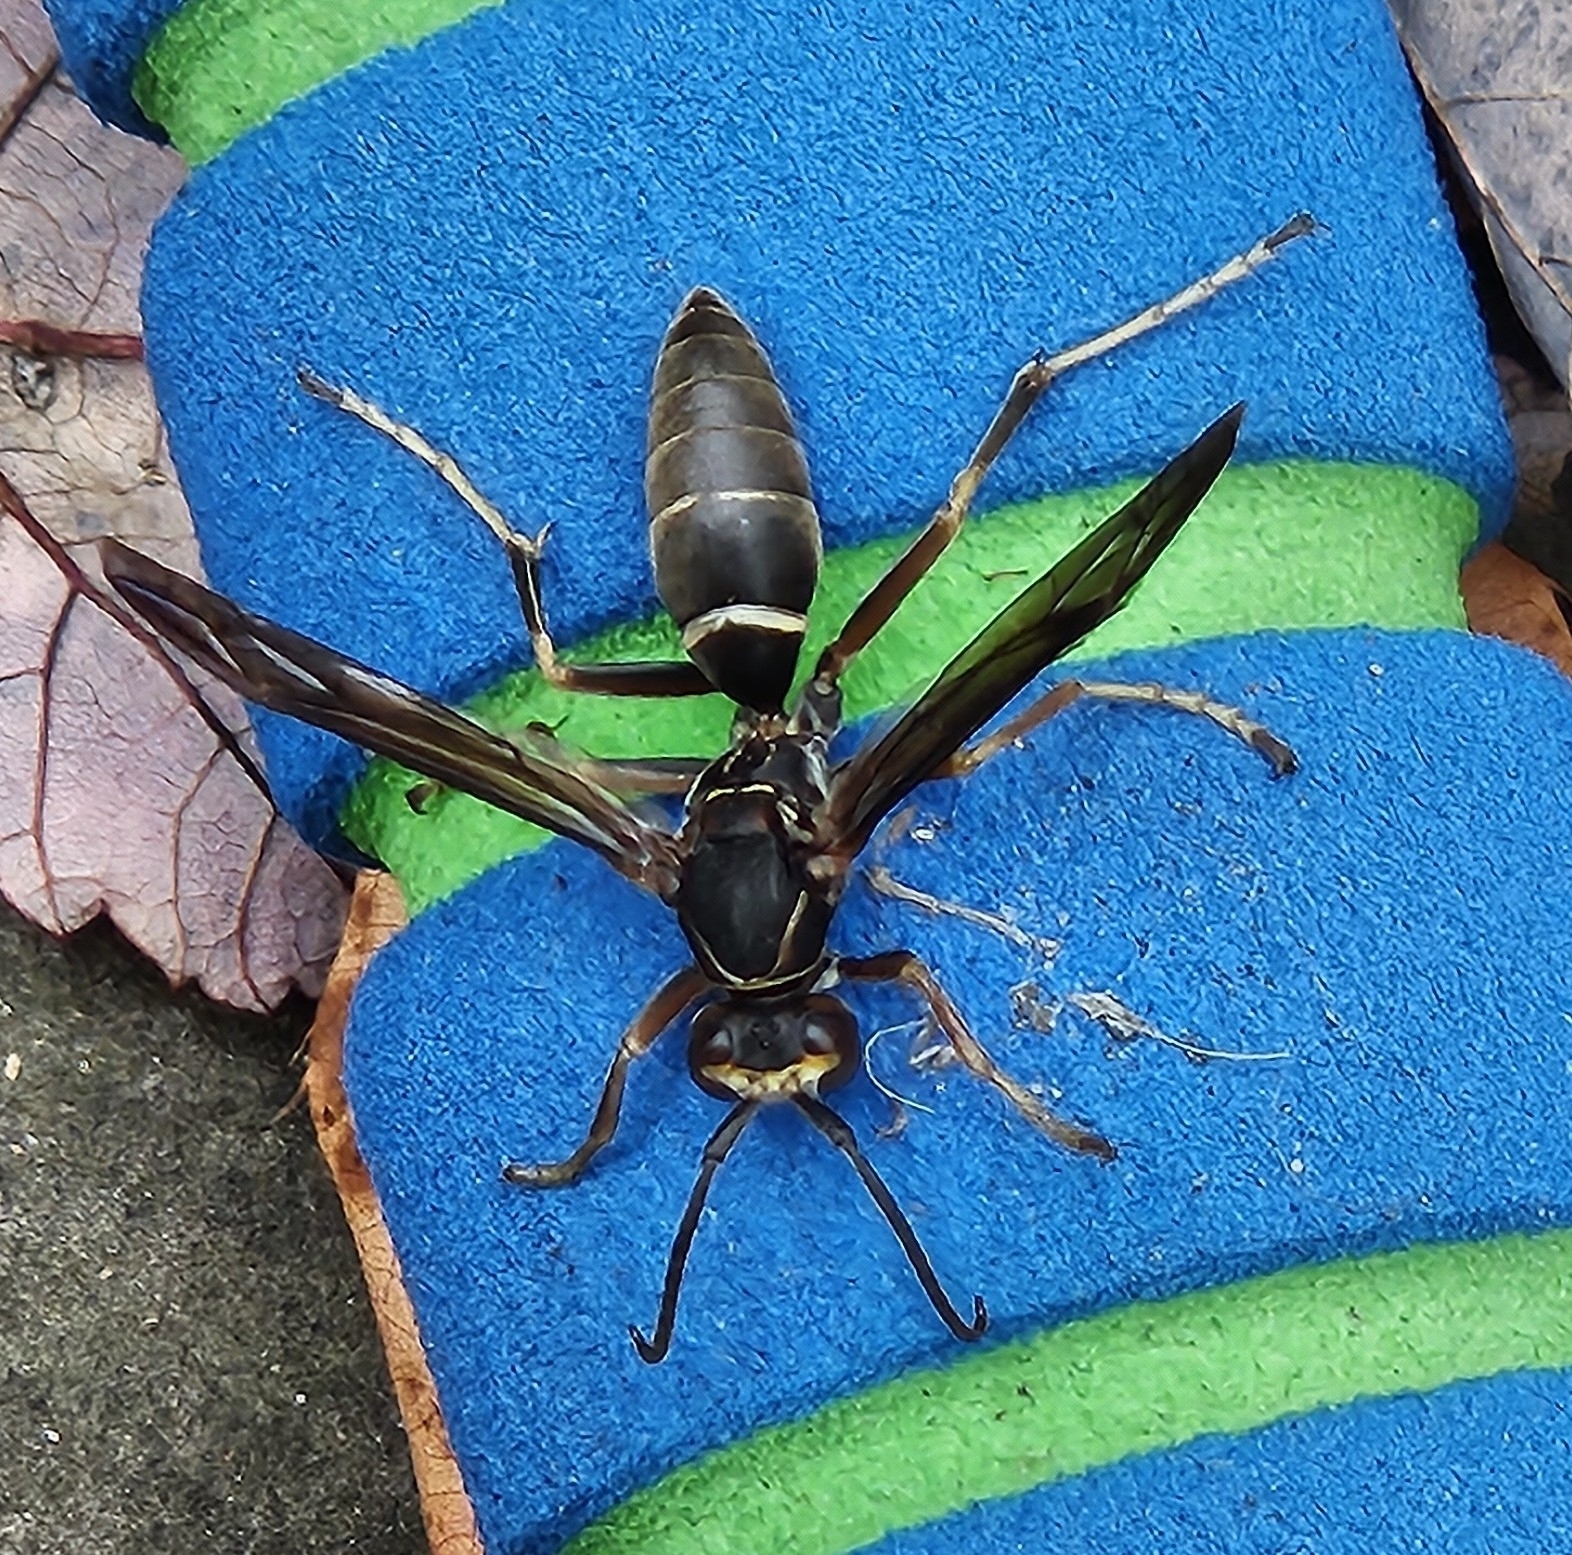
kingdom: Animalia
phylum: Arthropoda
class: Insecta
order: Hymenoptera
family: Eumenidae
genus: Polistes
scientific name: Polistes fuscatus
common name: Dark paper wasp
